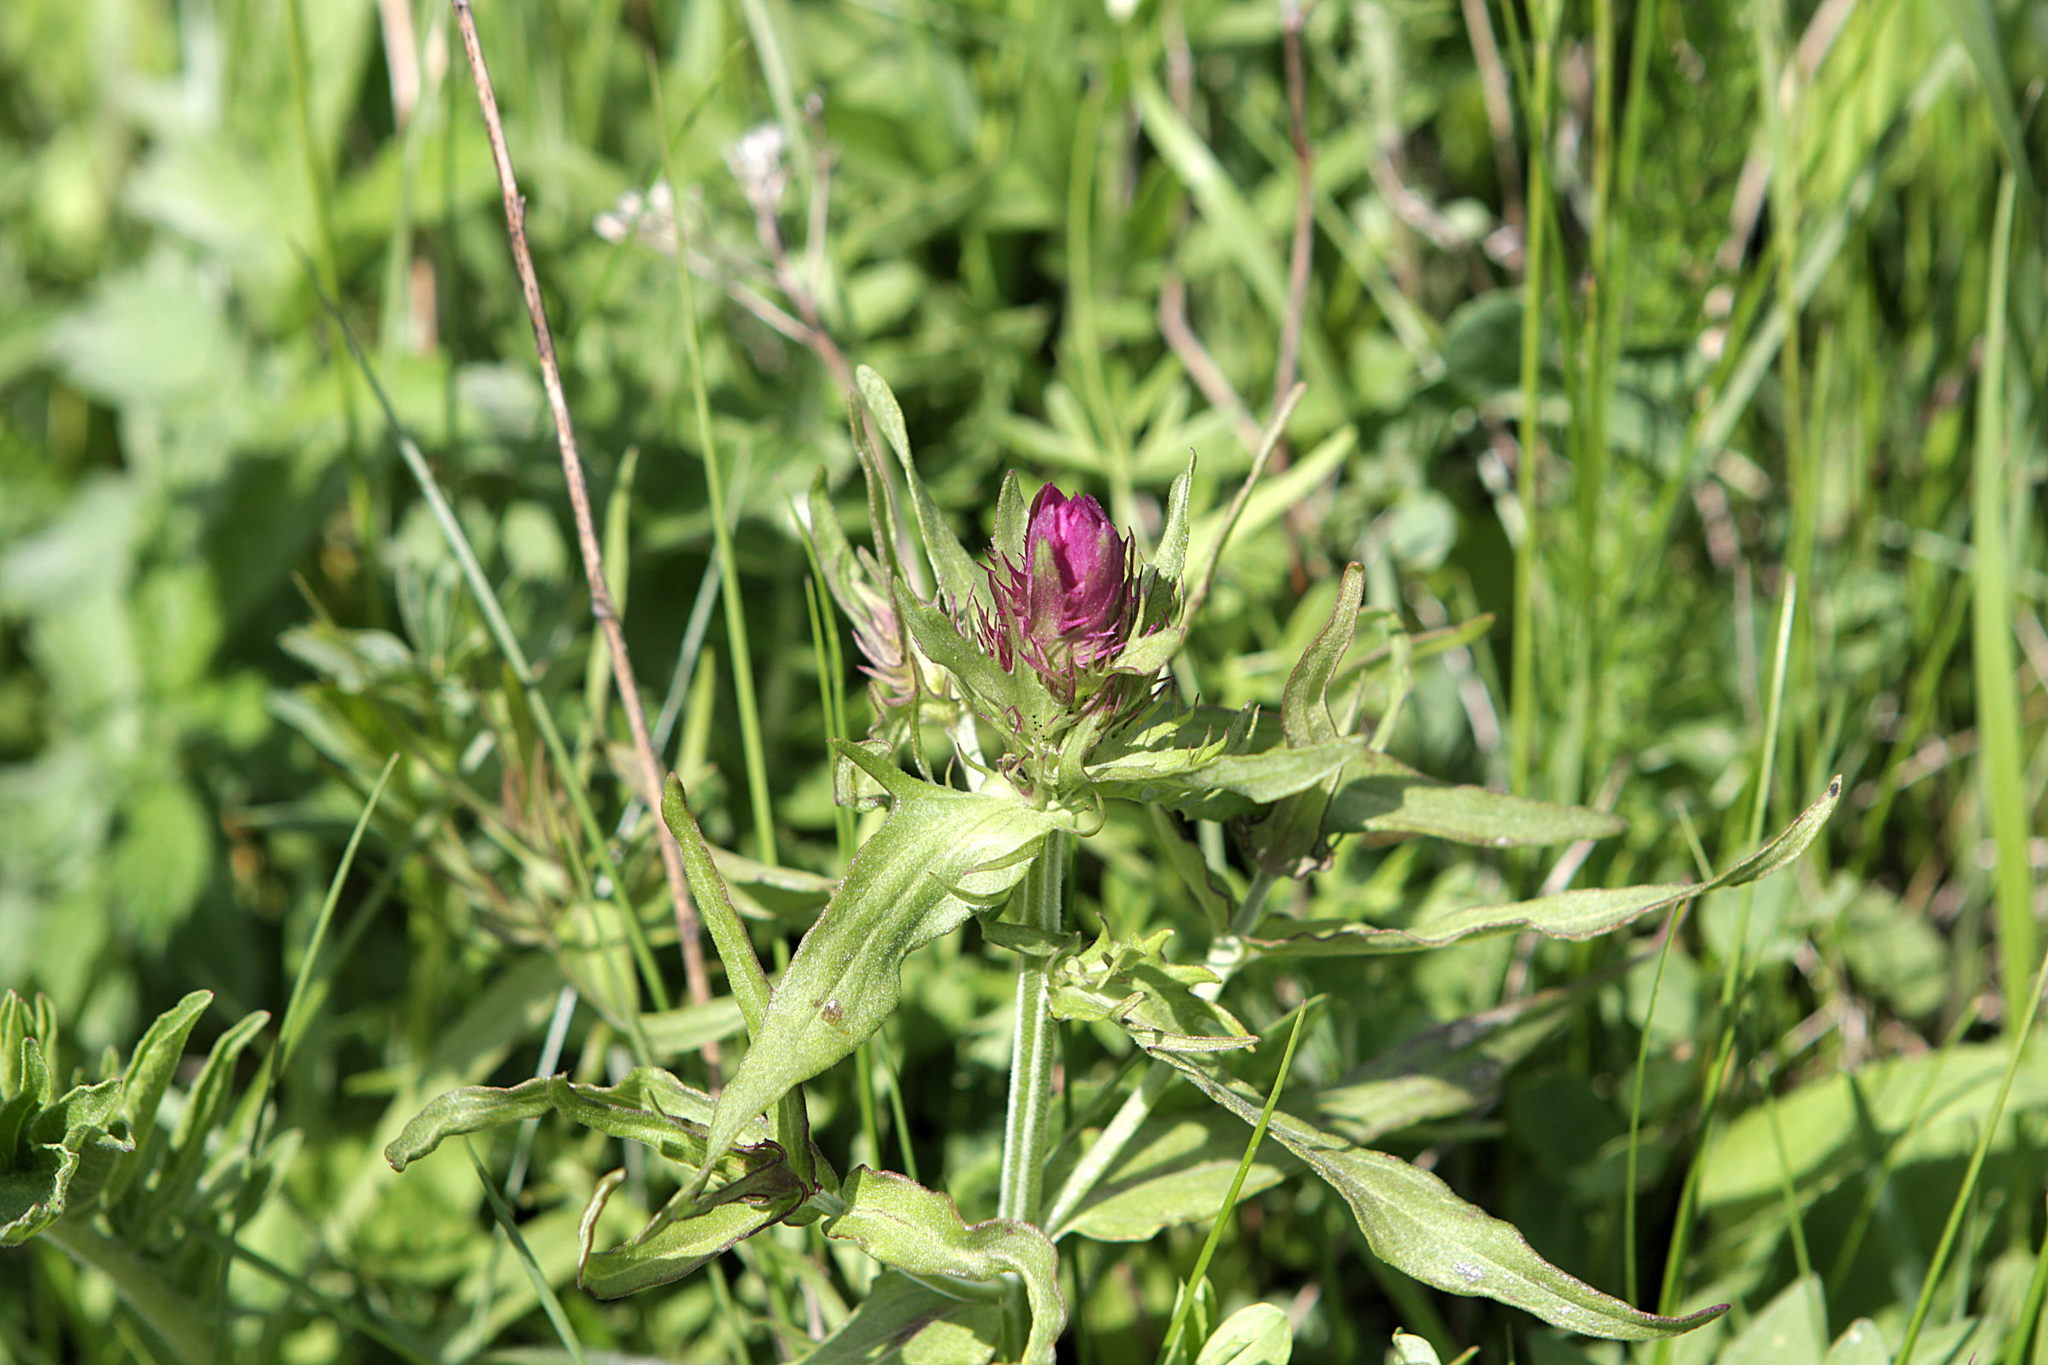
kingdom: Plantae
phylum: Tracheophyta
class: Magnoliopsida
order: Lamiales
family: Orobanchaceae
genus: Melampyrum
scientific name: Melampyrum arvense
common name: Field cow-wheat
